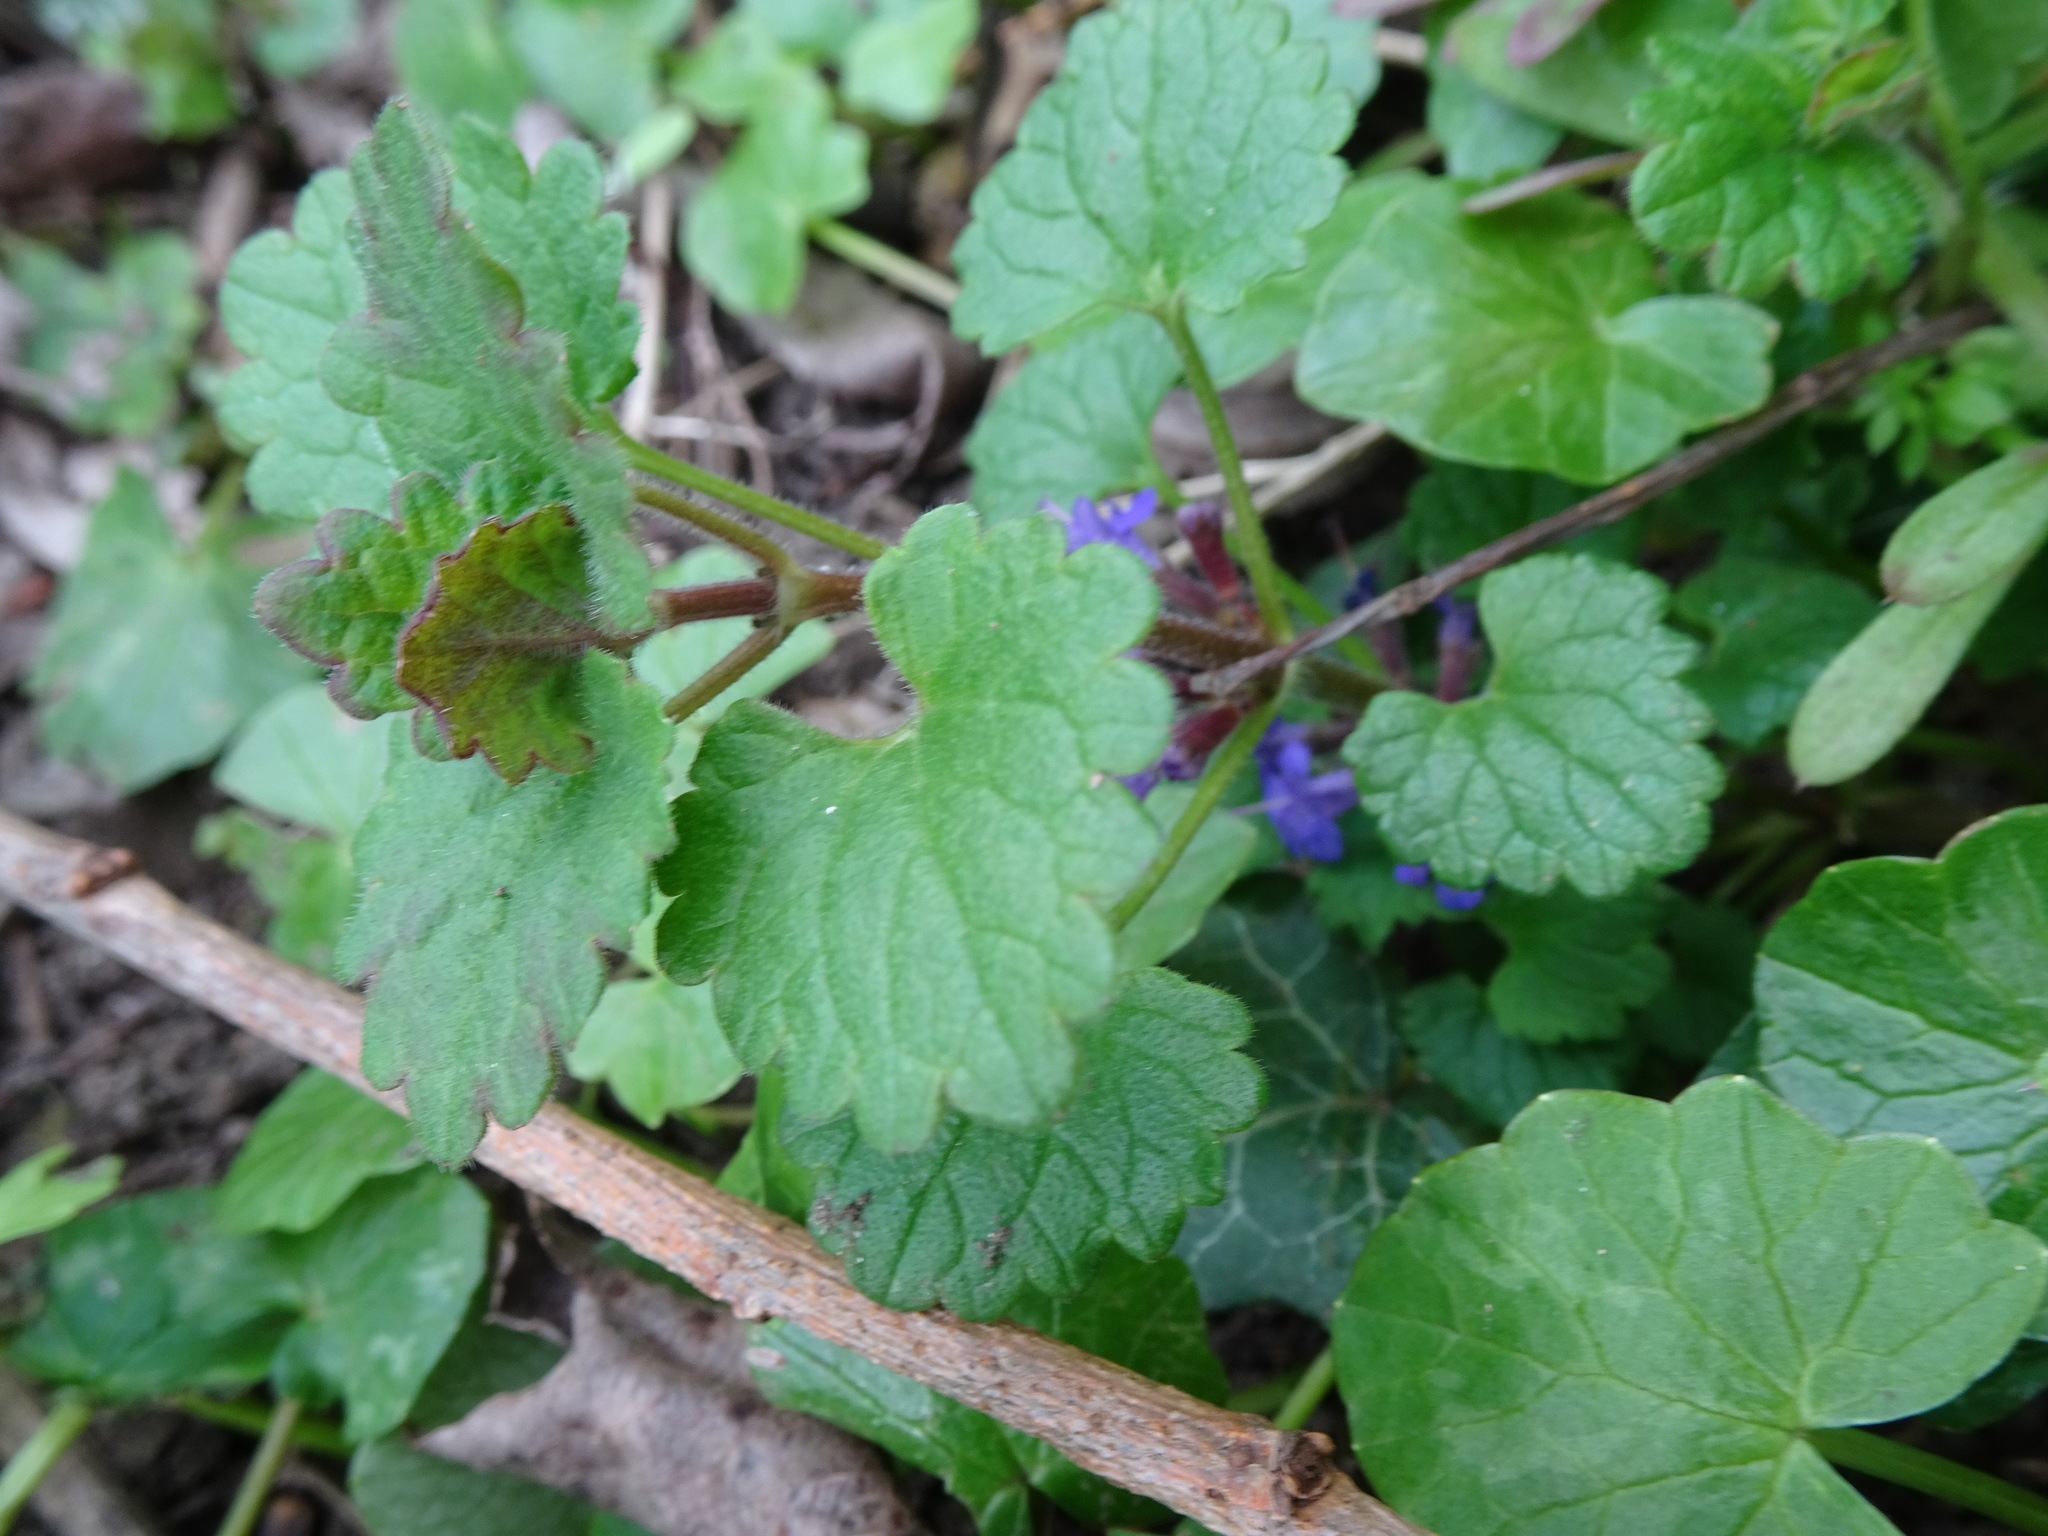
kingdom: Plantae
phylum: Tracheophyta
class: Magnoliopsida
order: Lamiales
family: Lamiaceae
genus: Glechoma
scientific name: Glechoma hederacea
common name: Ground ivy
